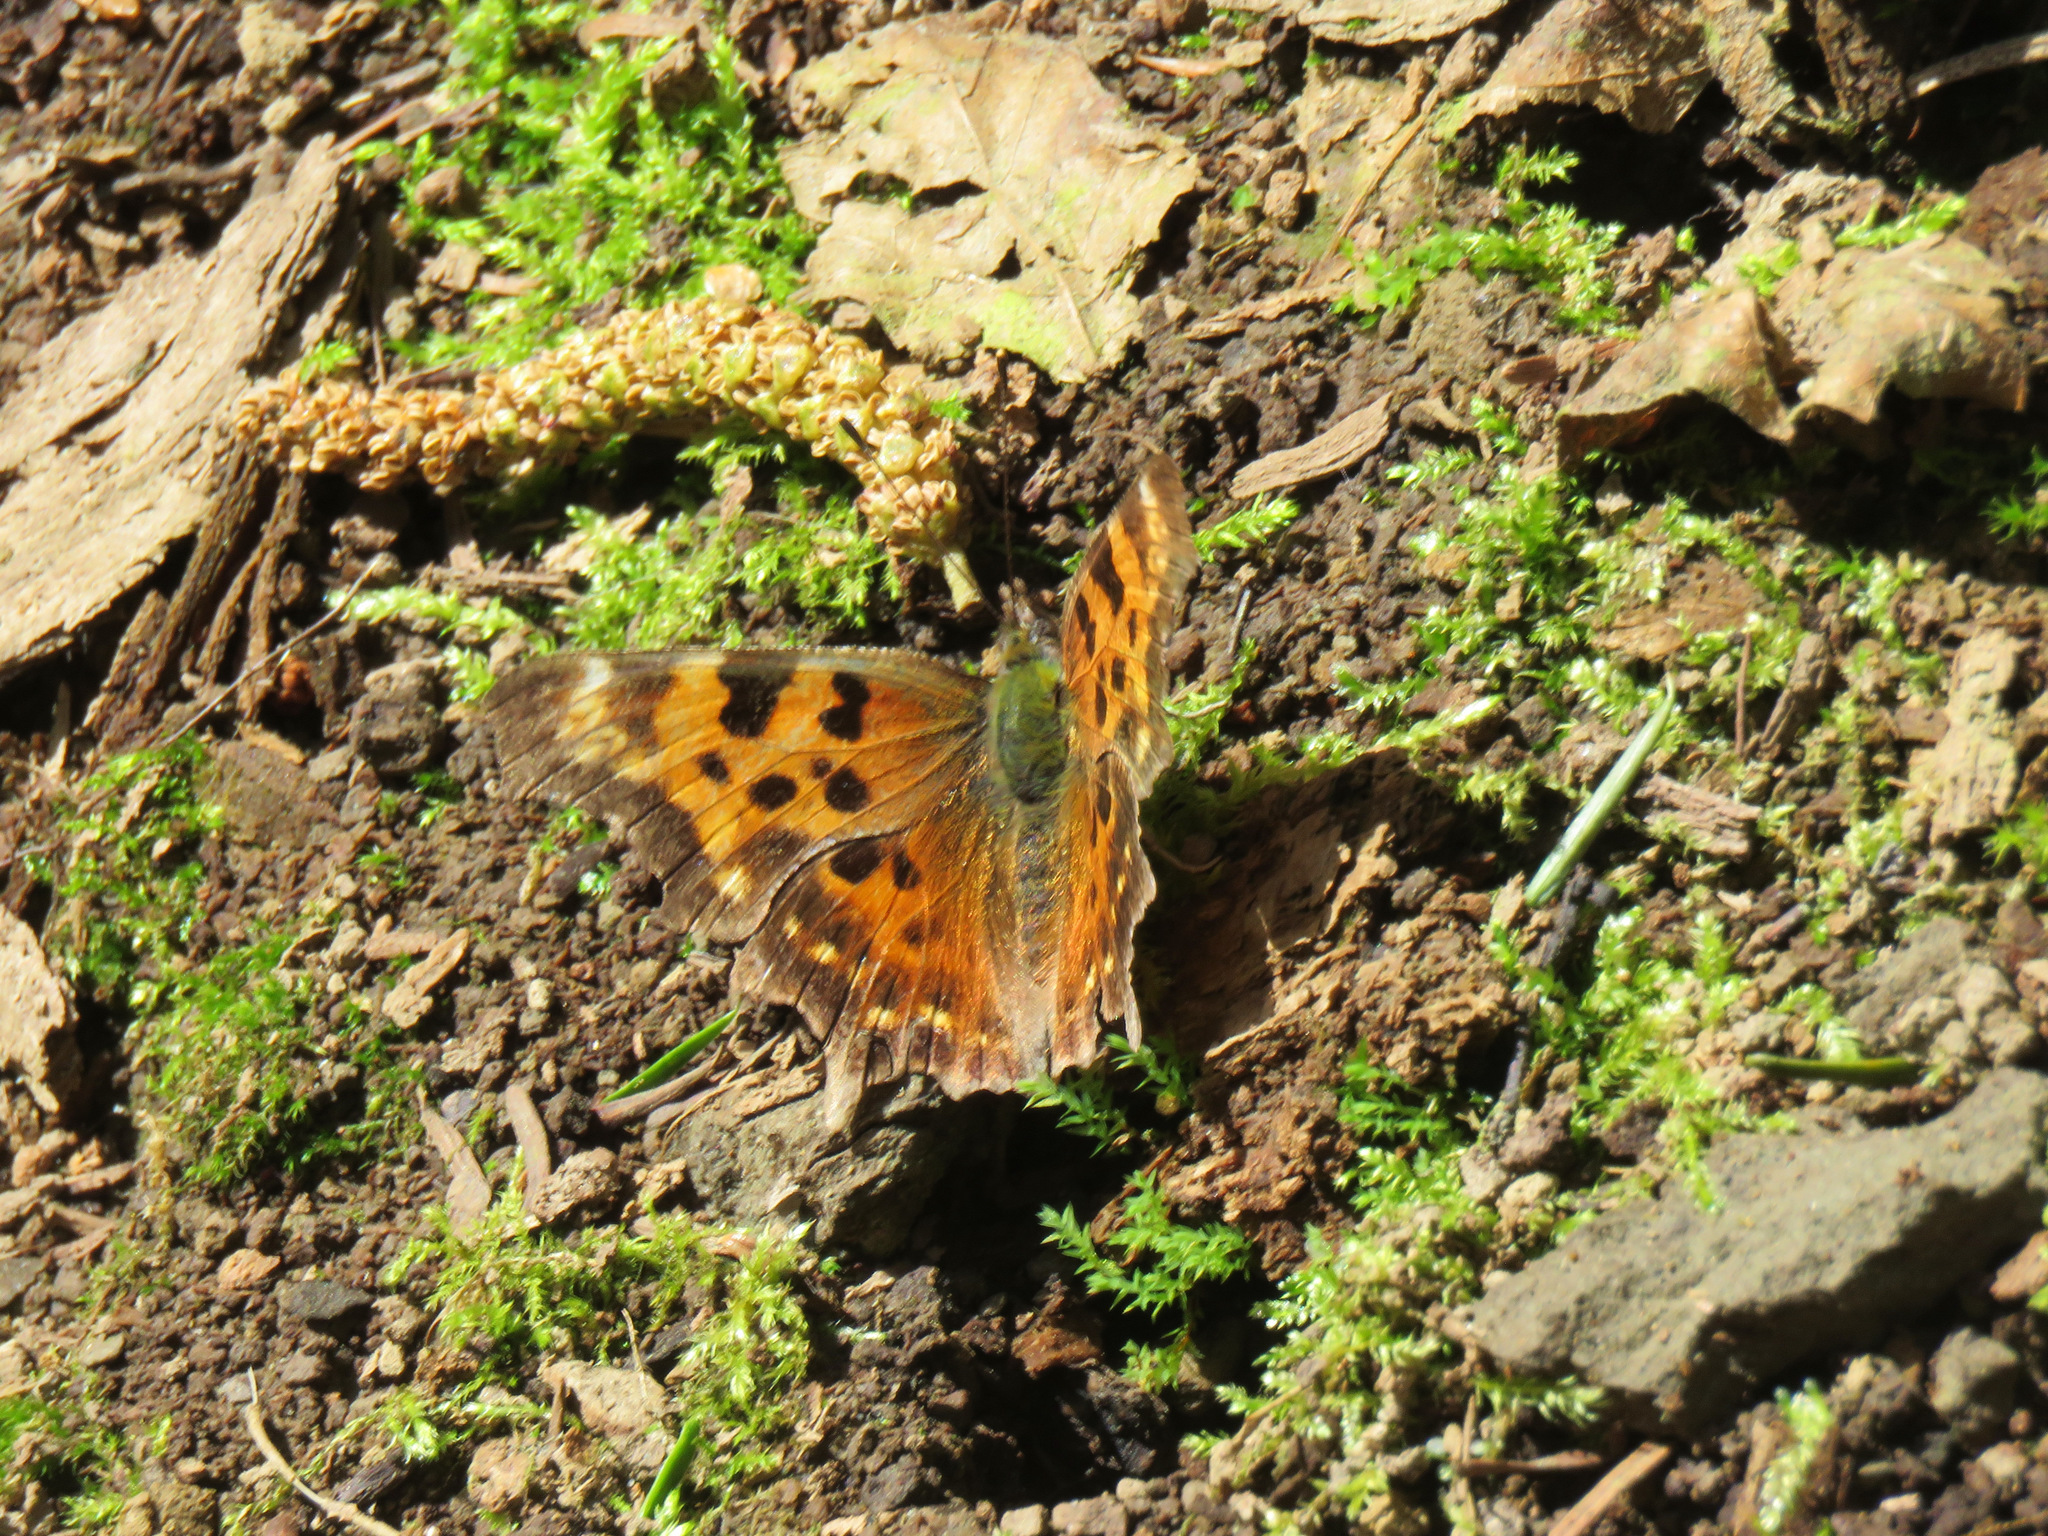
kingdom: Animalia
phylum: Arthropoda
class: Insecta
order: Lepidoptera
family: Nymphalidae
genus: Polygonia
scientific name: Polygonia faunus
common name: Green comma
